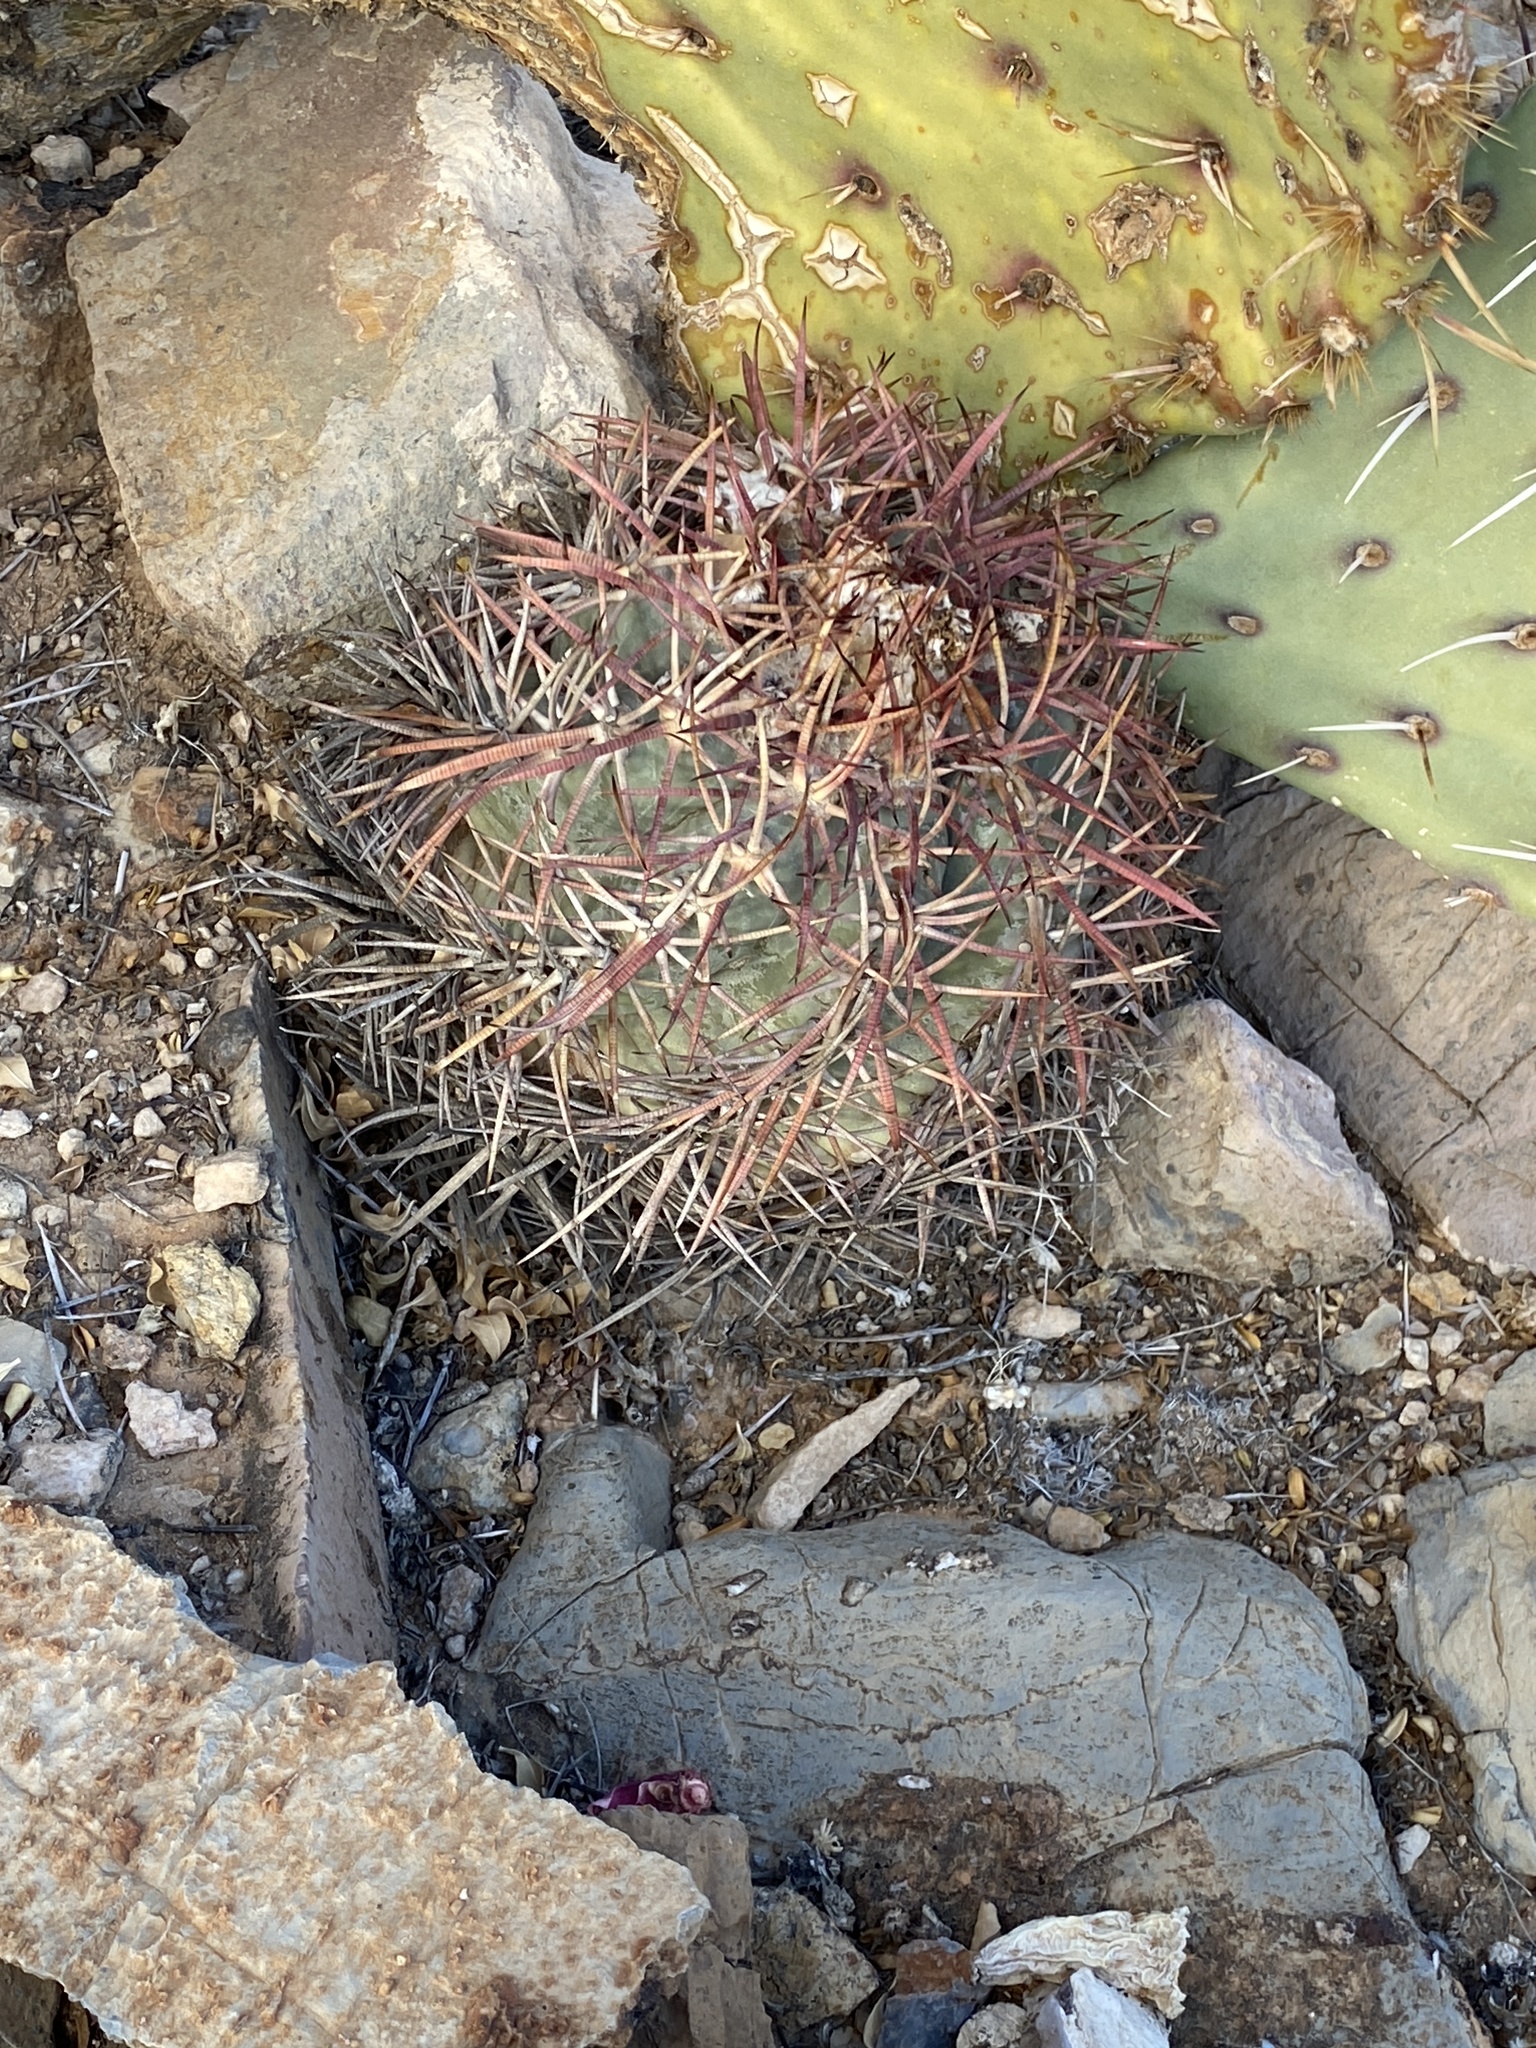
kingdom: Plantae
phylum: Tracheophyta
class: Magnoliopsida
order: Caryophyllales
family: Cactaceae
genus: Echinocactus
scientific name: Echinocactus horizonthalonius
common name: Devilshead
